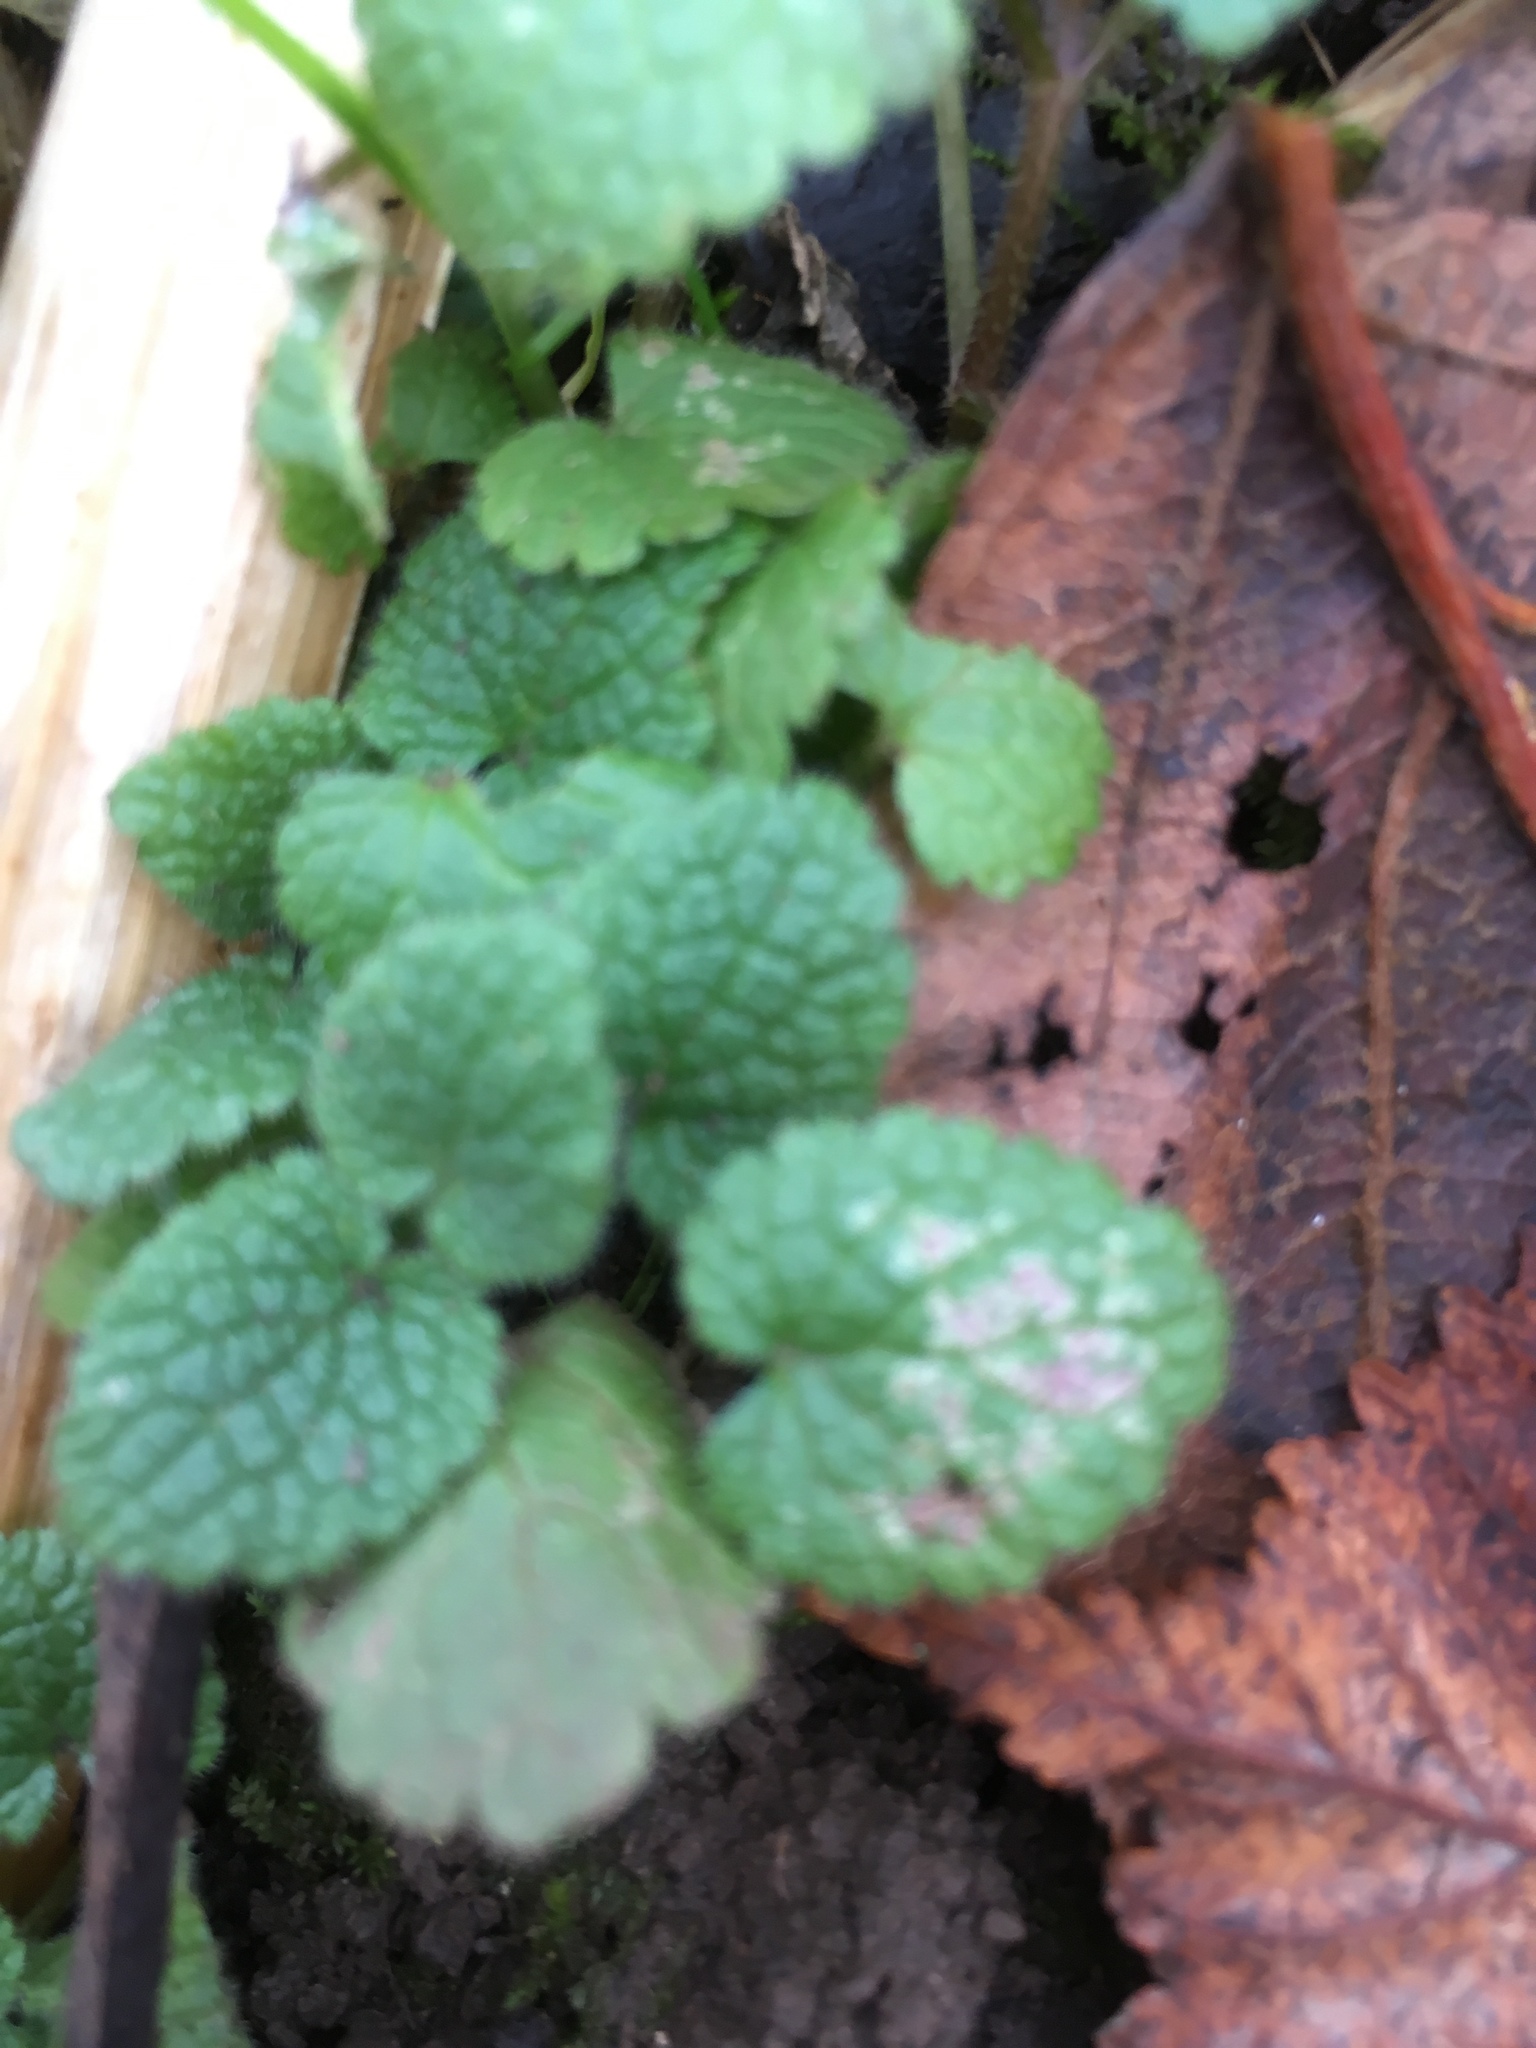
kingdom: Plantae
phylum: Tracheophyta
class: Magnoliopsida
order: Lamiales
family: Lamiaceae
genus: Ballota
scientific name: Ballota nigra
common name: Black horehound
